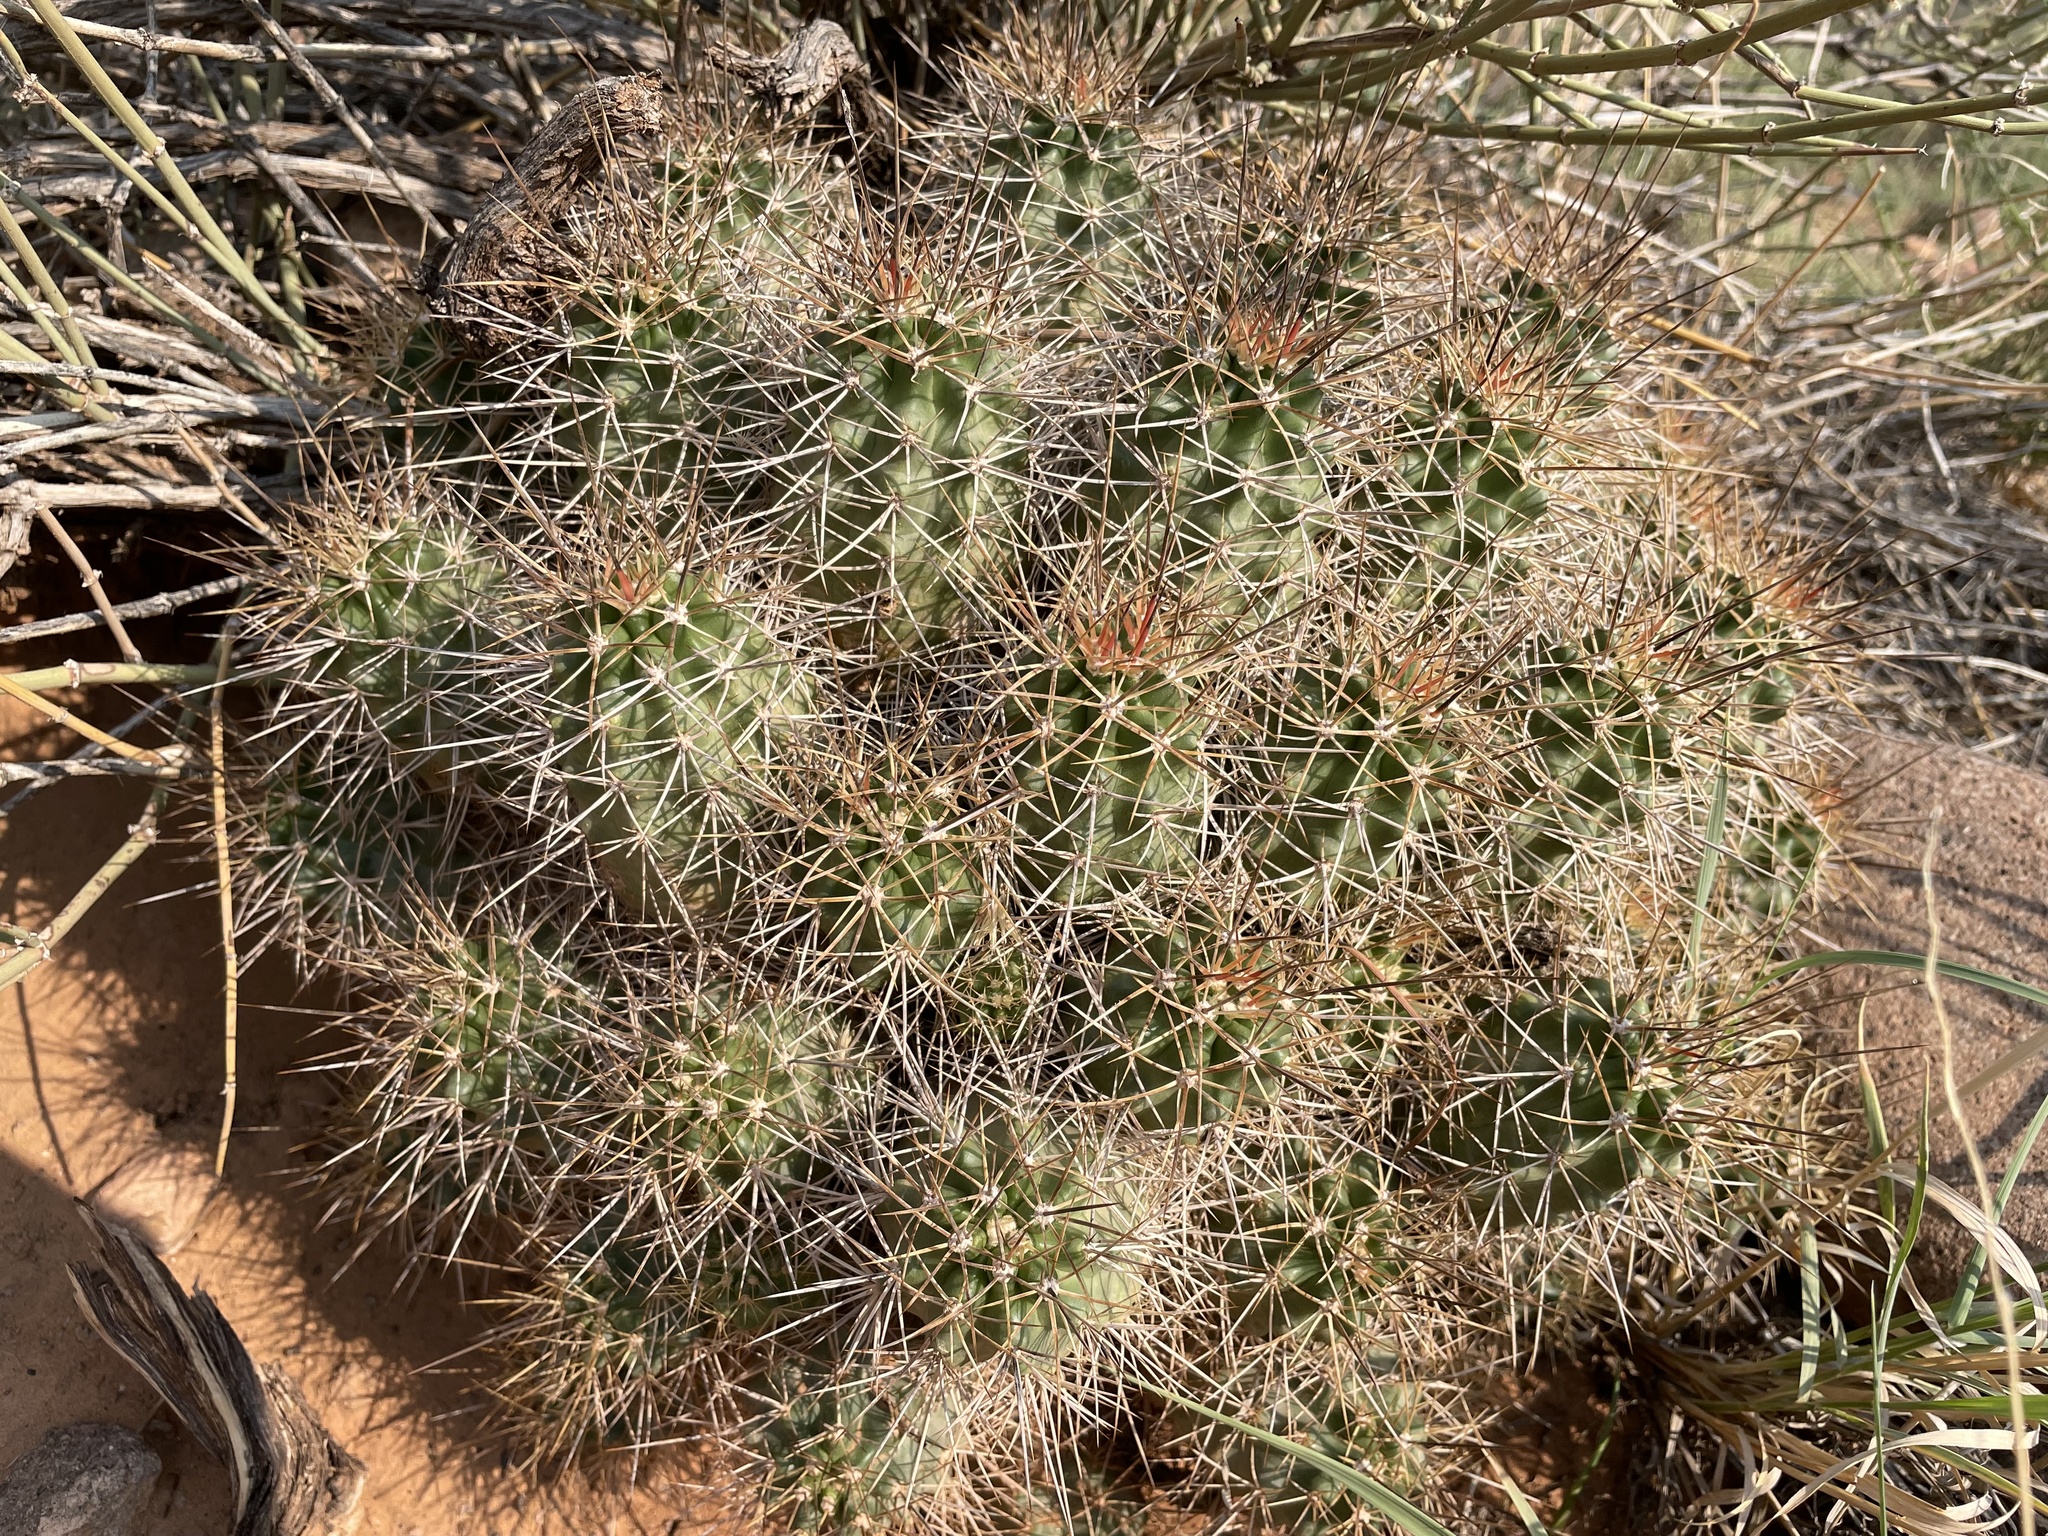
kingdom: Plantae
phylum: Tracheophyta
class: Magnoliopsida
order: Caryophyllales
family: Cactaceae
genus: Echinocereus
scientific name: Echinocereus triglochidiatus
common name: Claretcup hedgehog
